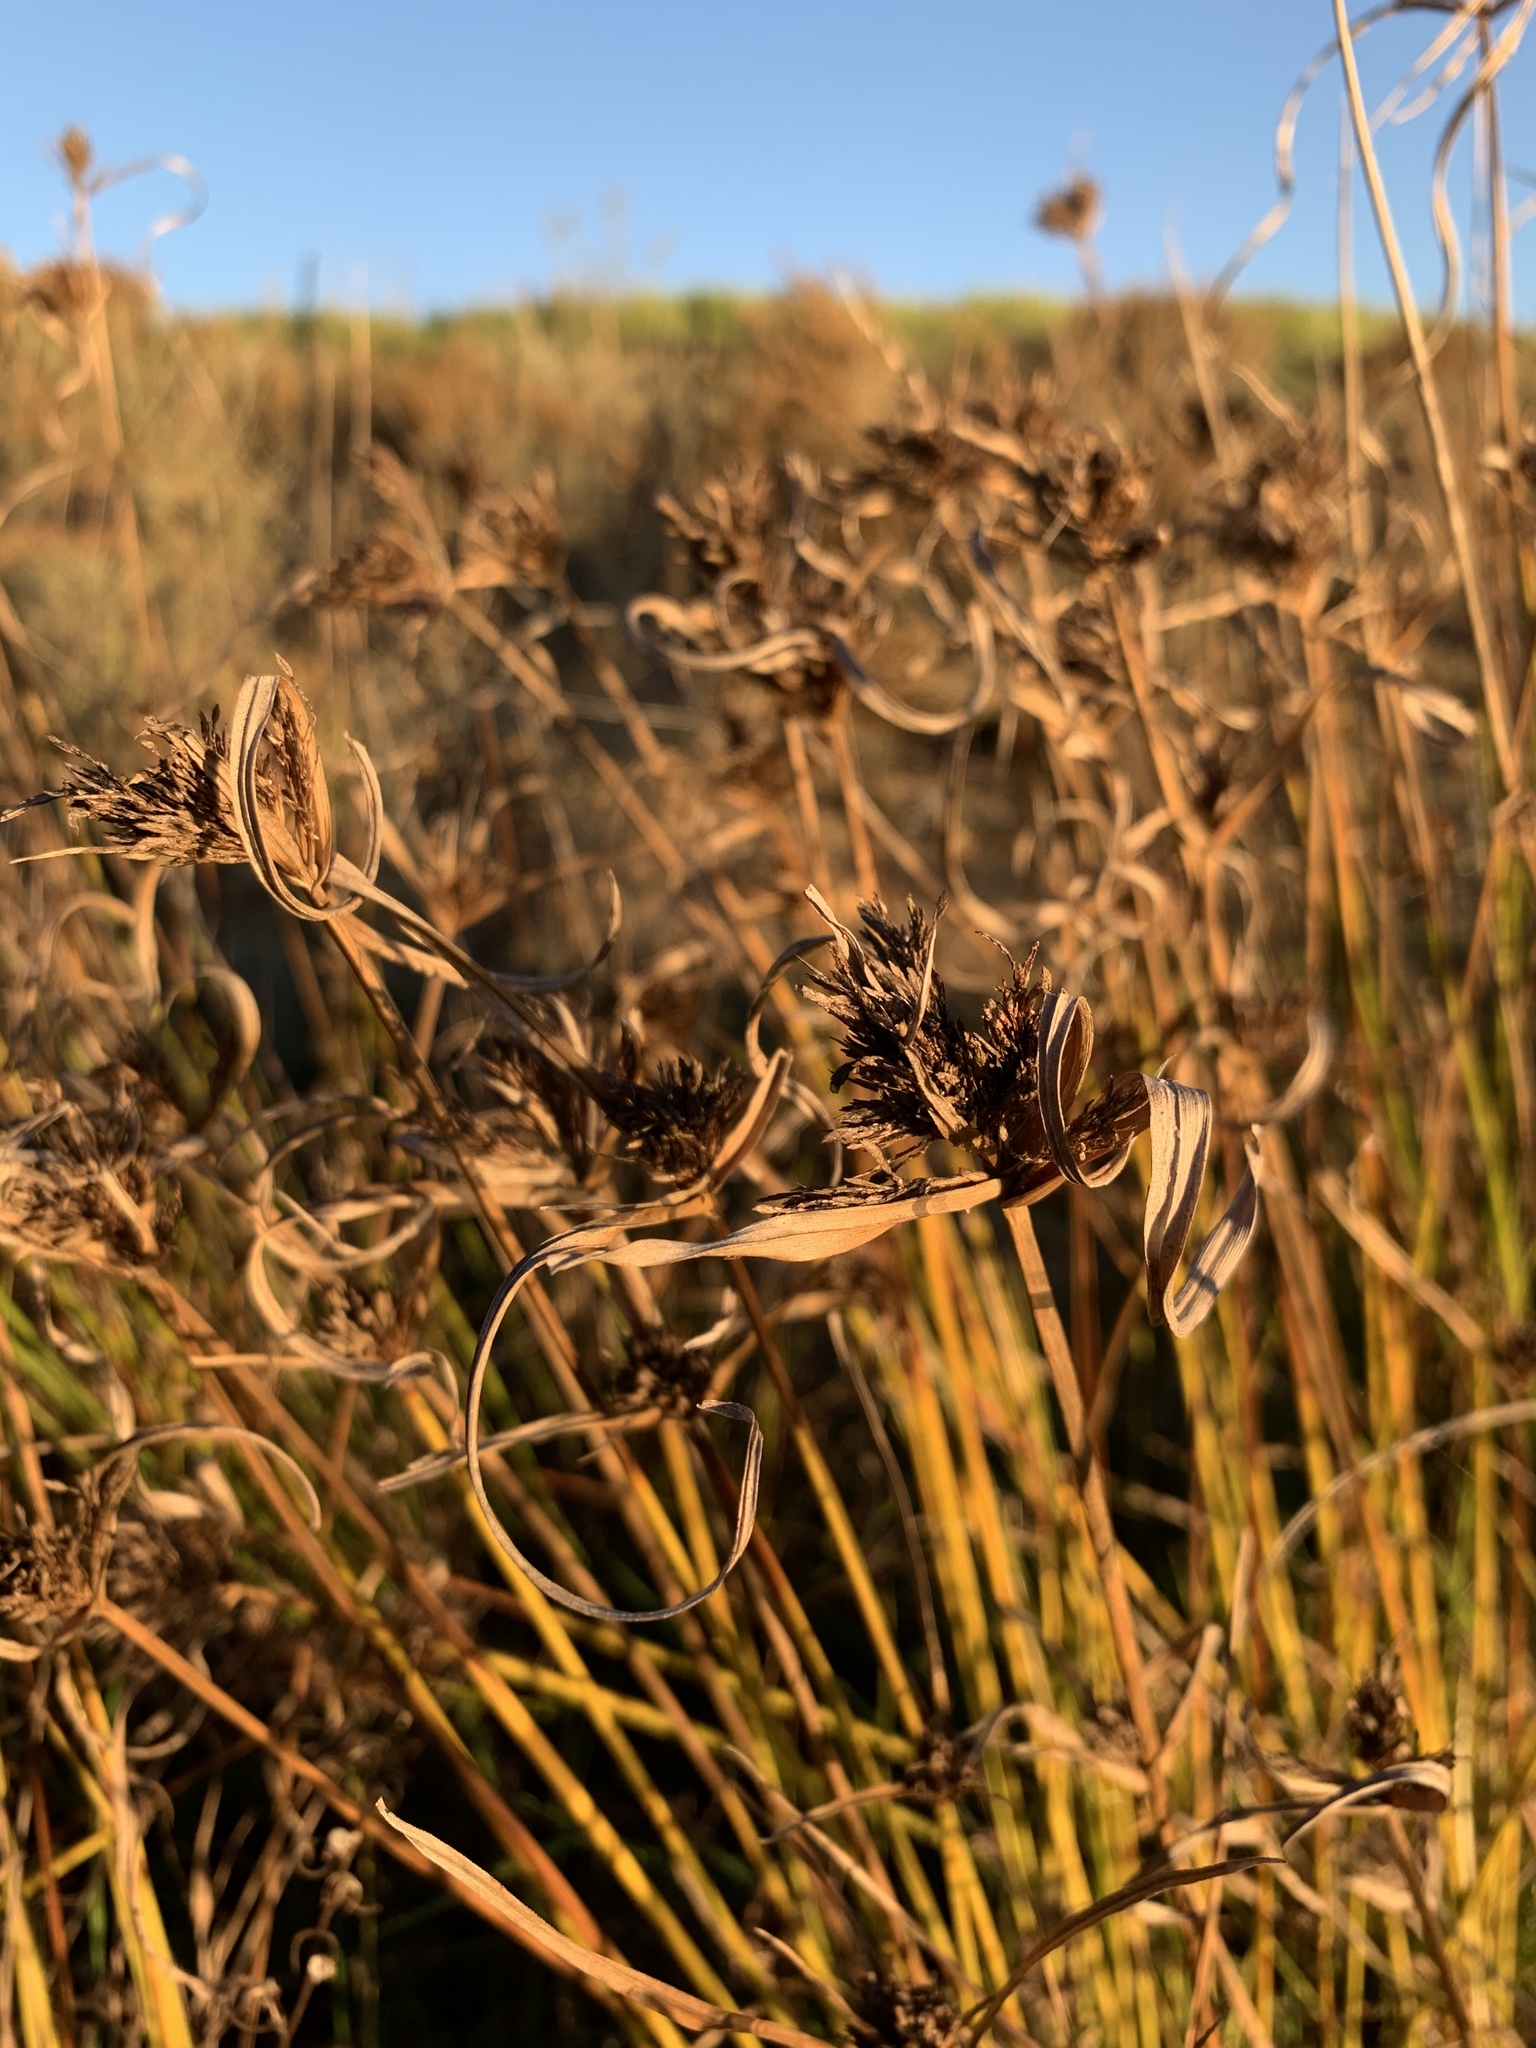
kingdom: Plantae
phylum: Tracheophyta
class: Liliopsida
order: Poales
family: Cyperaceae
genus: Cyperus
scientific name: Cyperus polystachyos
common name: Bunchy flat sedge
